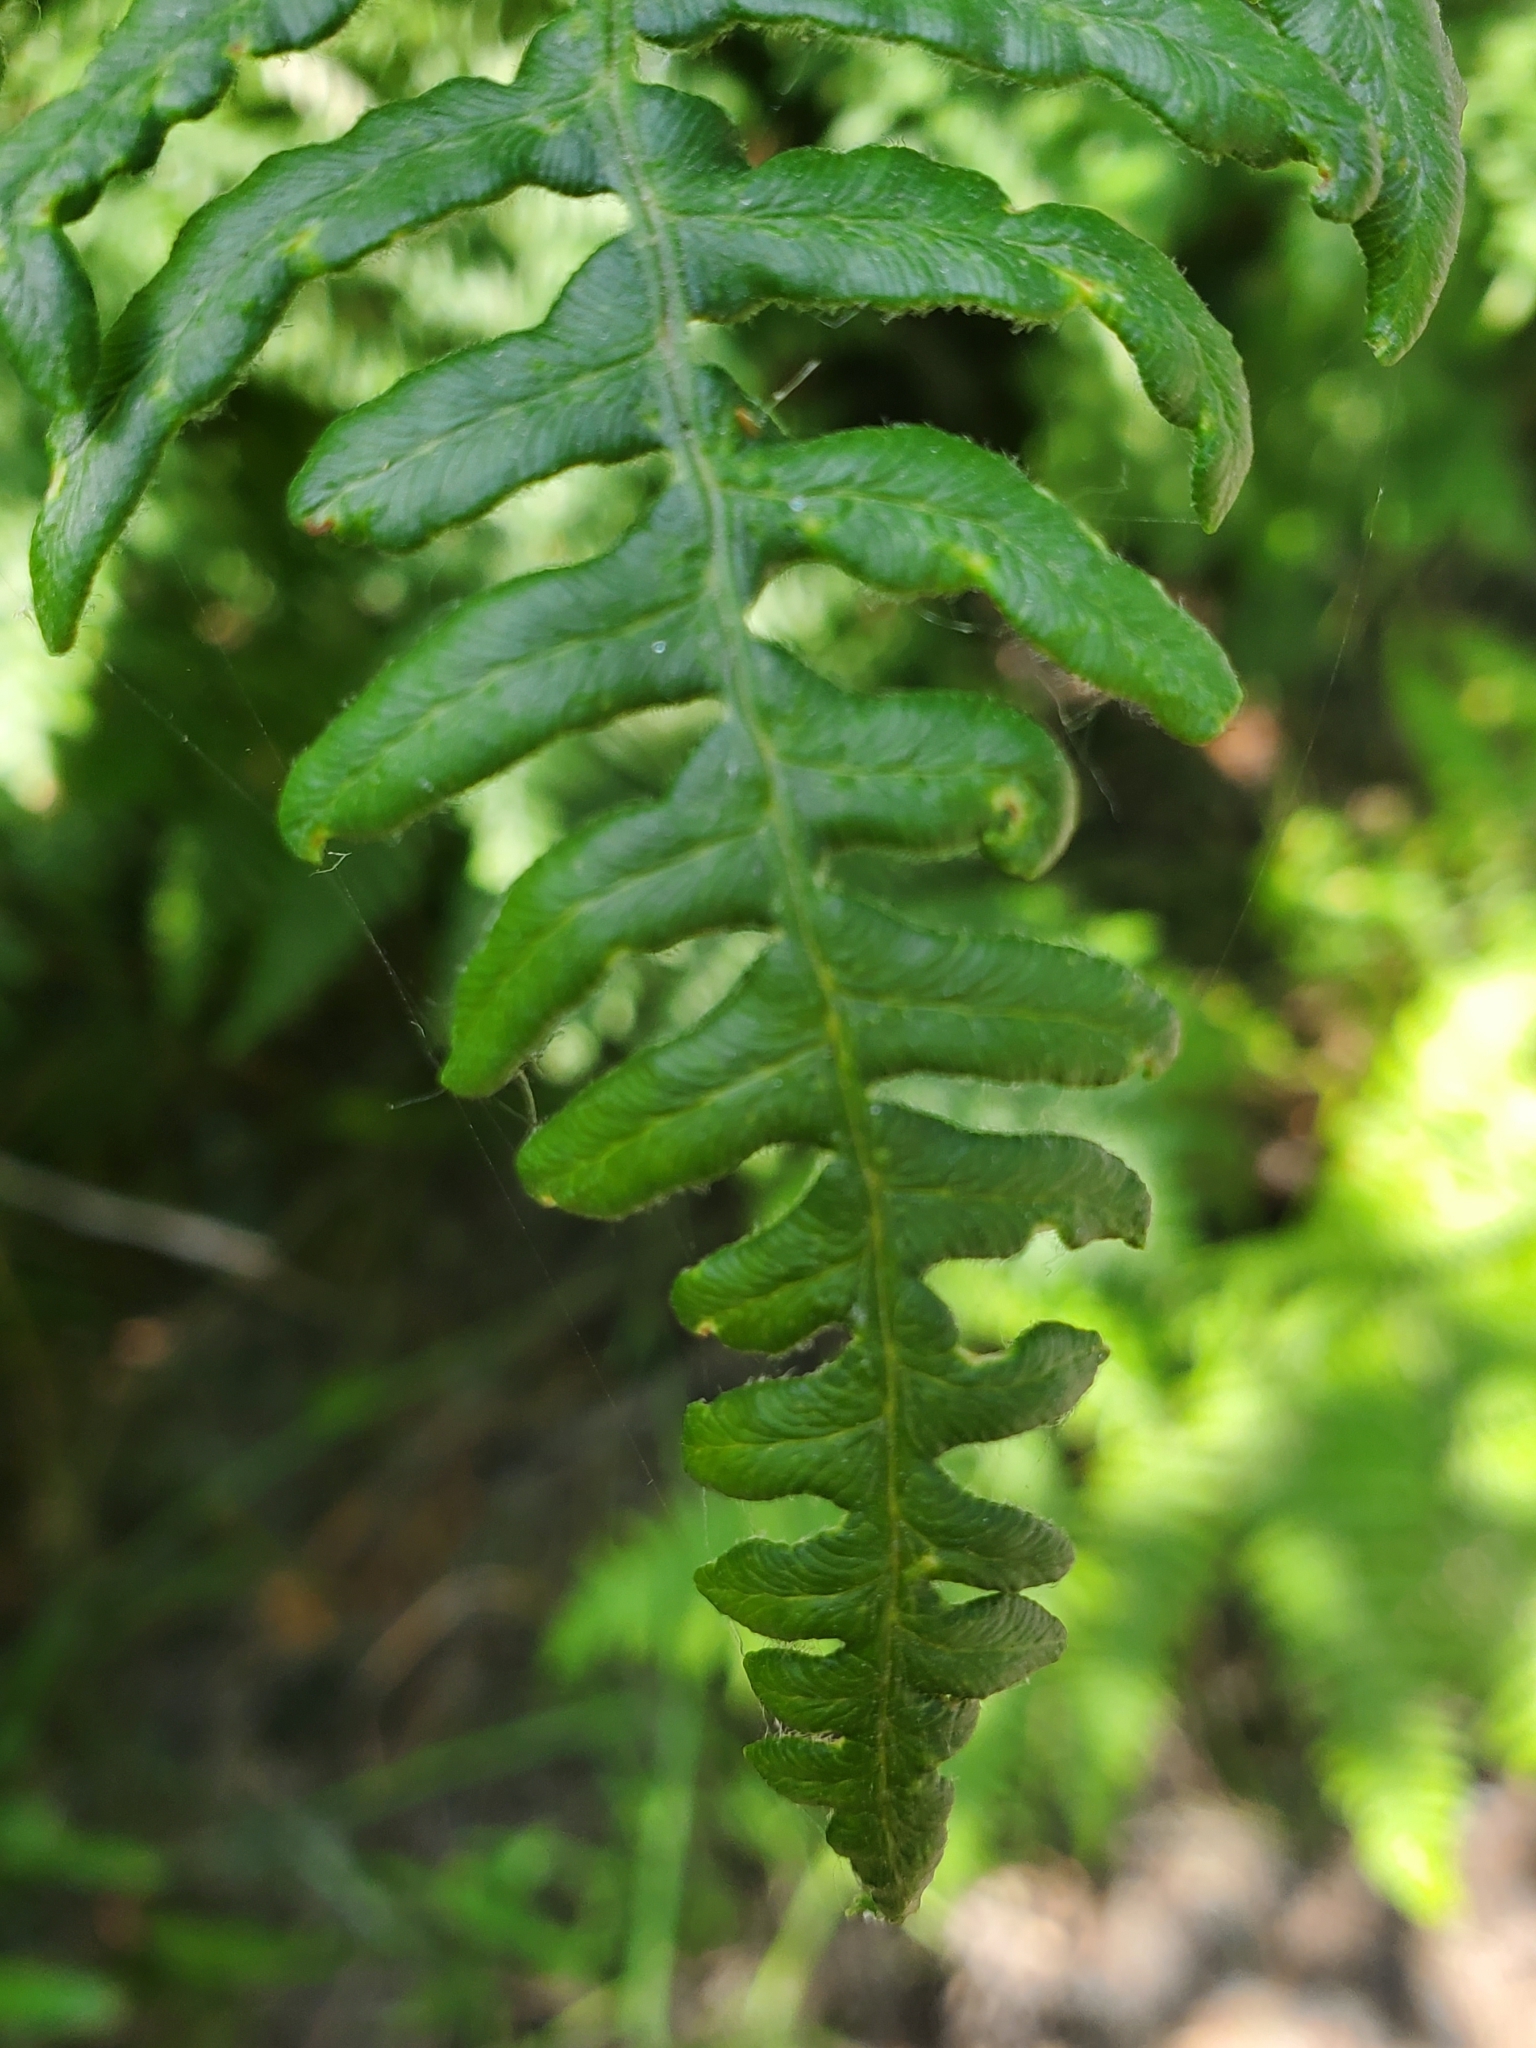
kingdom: Plantae
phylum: Tracheophyta
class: Polypodiopsida
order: Polypodiales
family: Dennstaedtiaceae
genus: Pteridium
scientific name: Pteridium aquilinum
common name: Bracken
